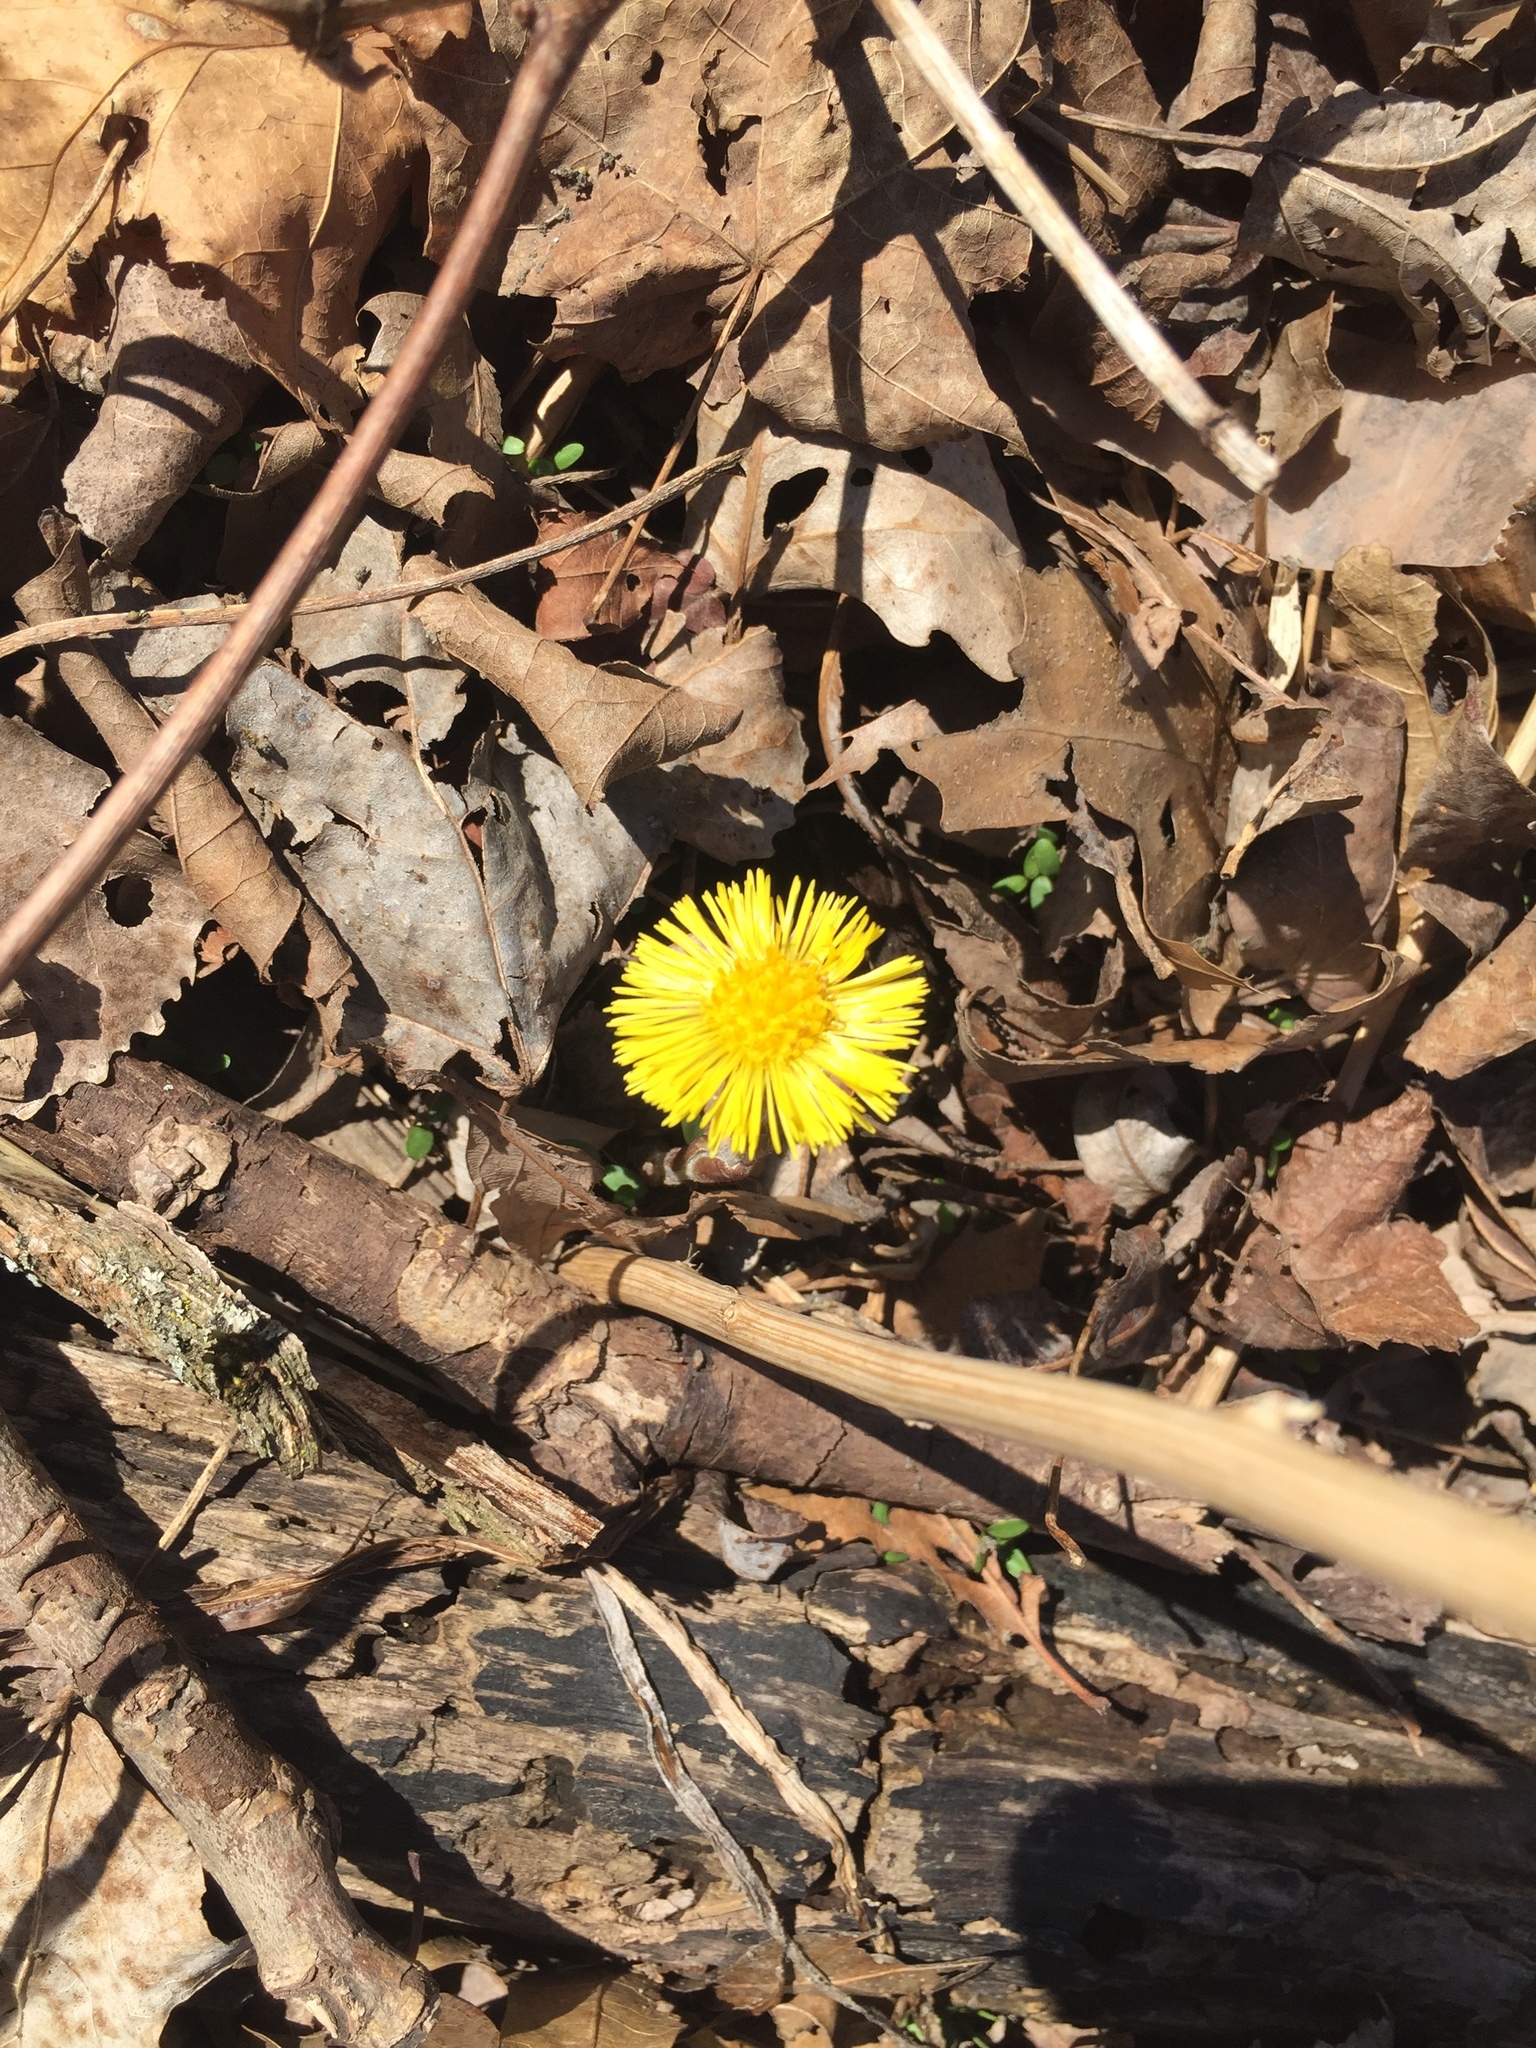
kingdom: Plantae
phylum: Tracheophyta
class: Magnoliopsida
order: Asterales
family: Asteraceae
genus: Tussilago
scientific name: Tussilago farfara
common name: Coltsfoot
